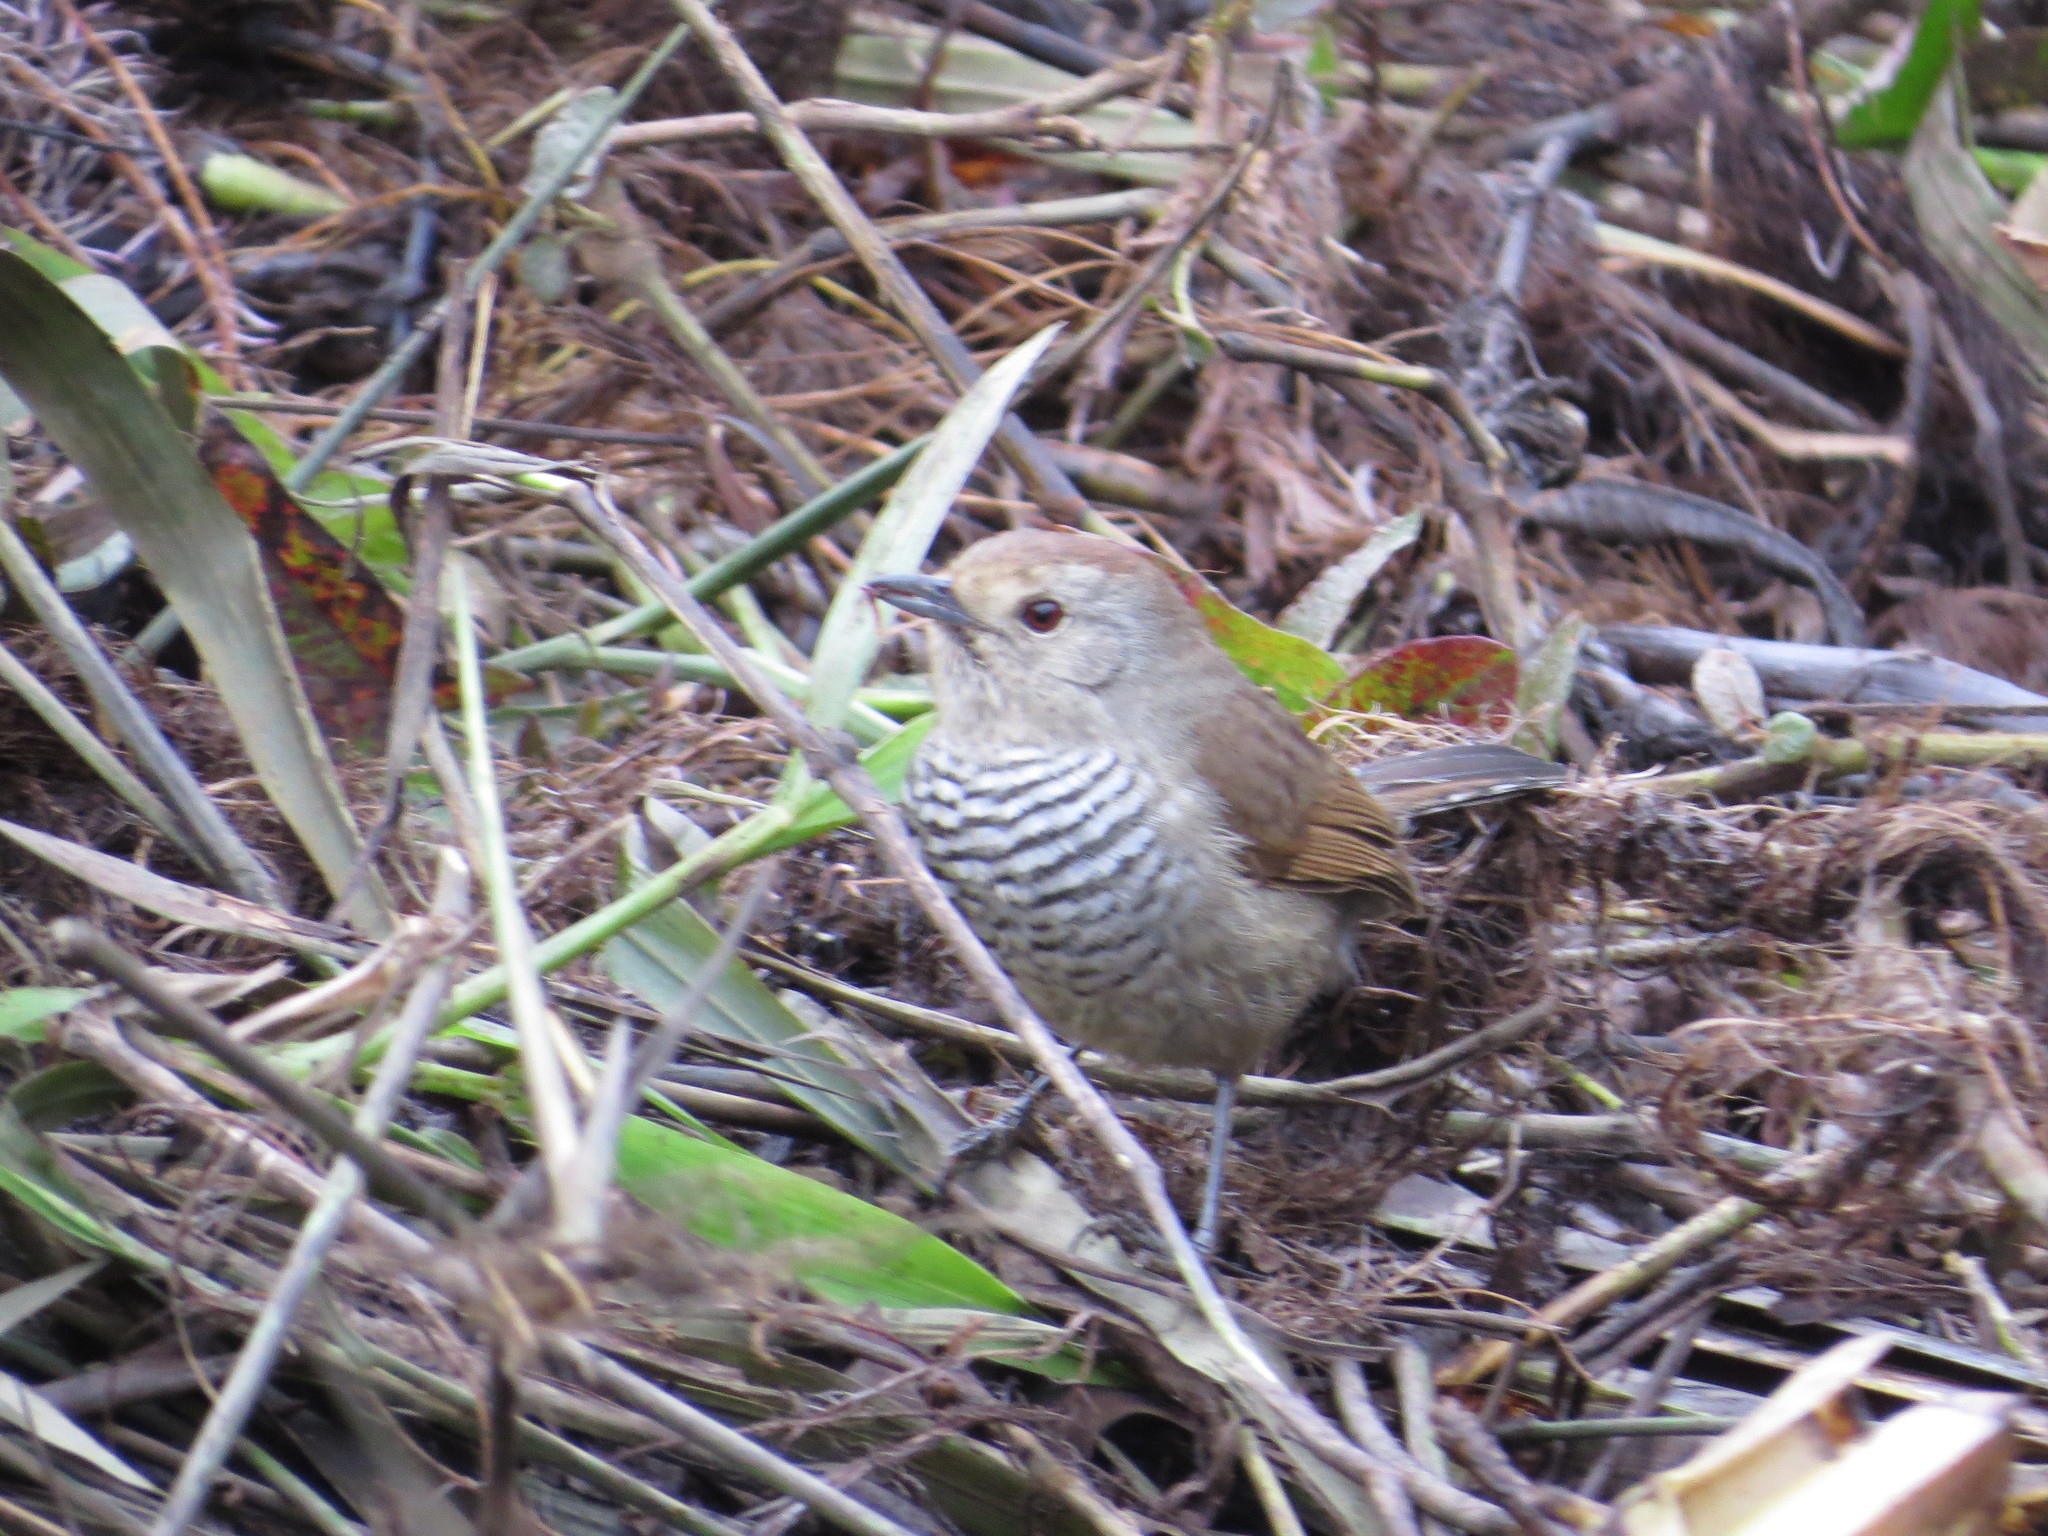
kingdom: Animalia
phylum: Chordata
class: Aves
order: Passeriformes
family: Thamnophilidae
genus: Thamnophilus
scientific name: Thamnophilus ruficapillus
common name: Rufous-capped antshrike
